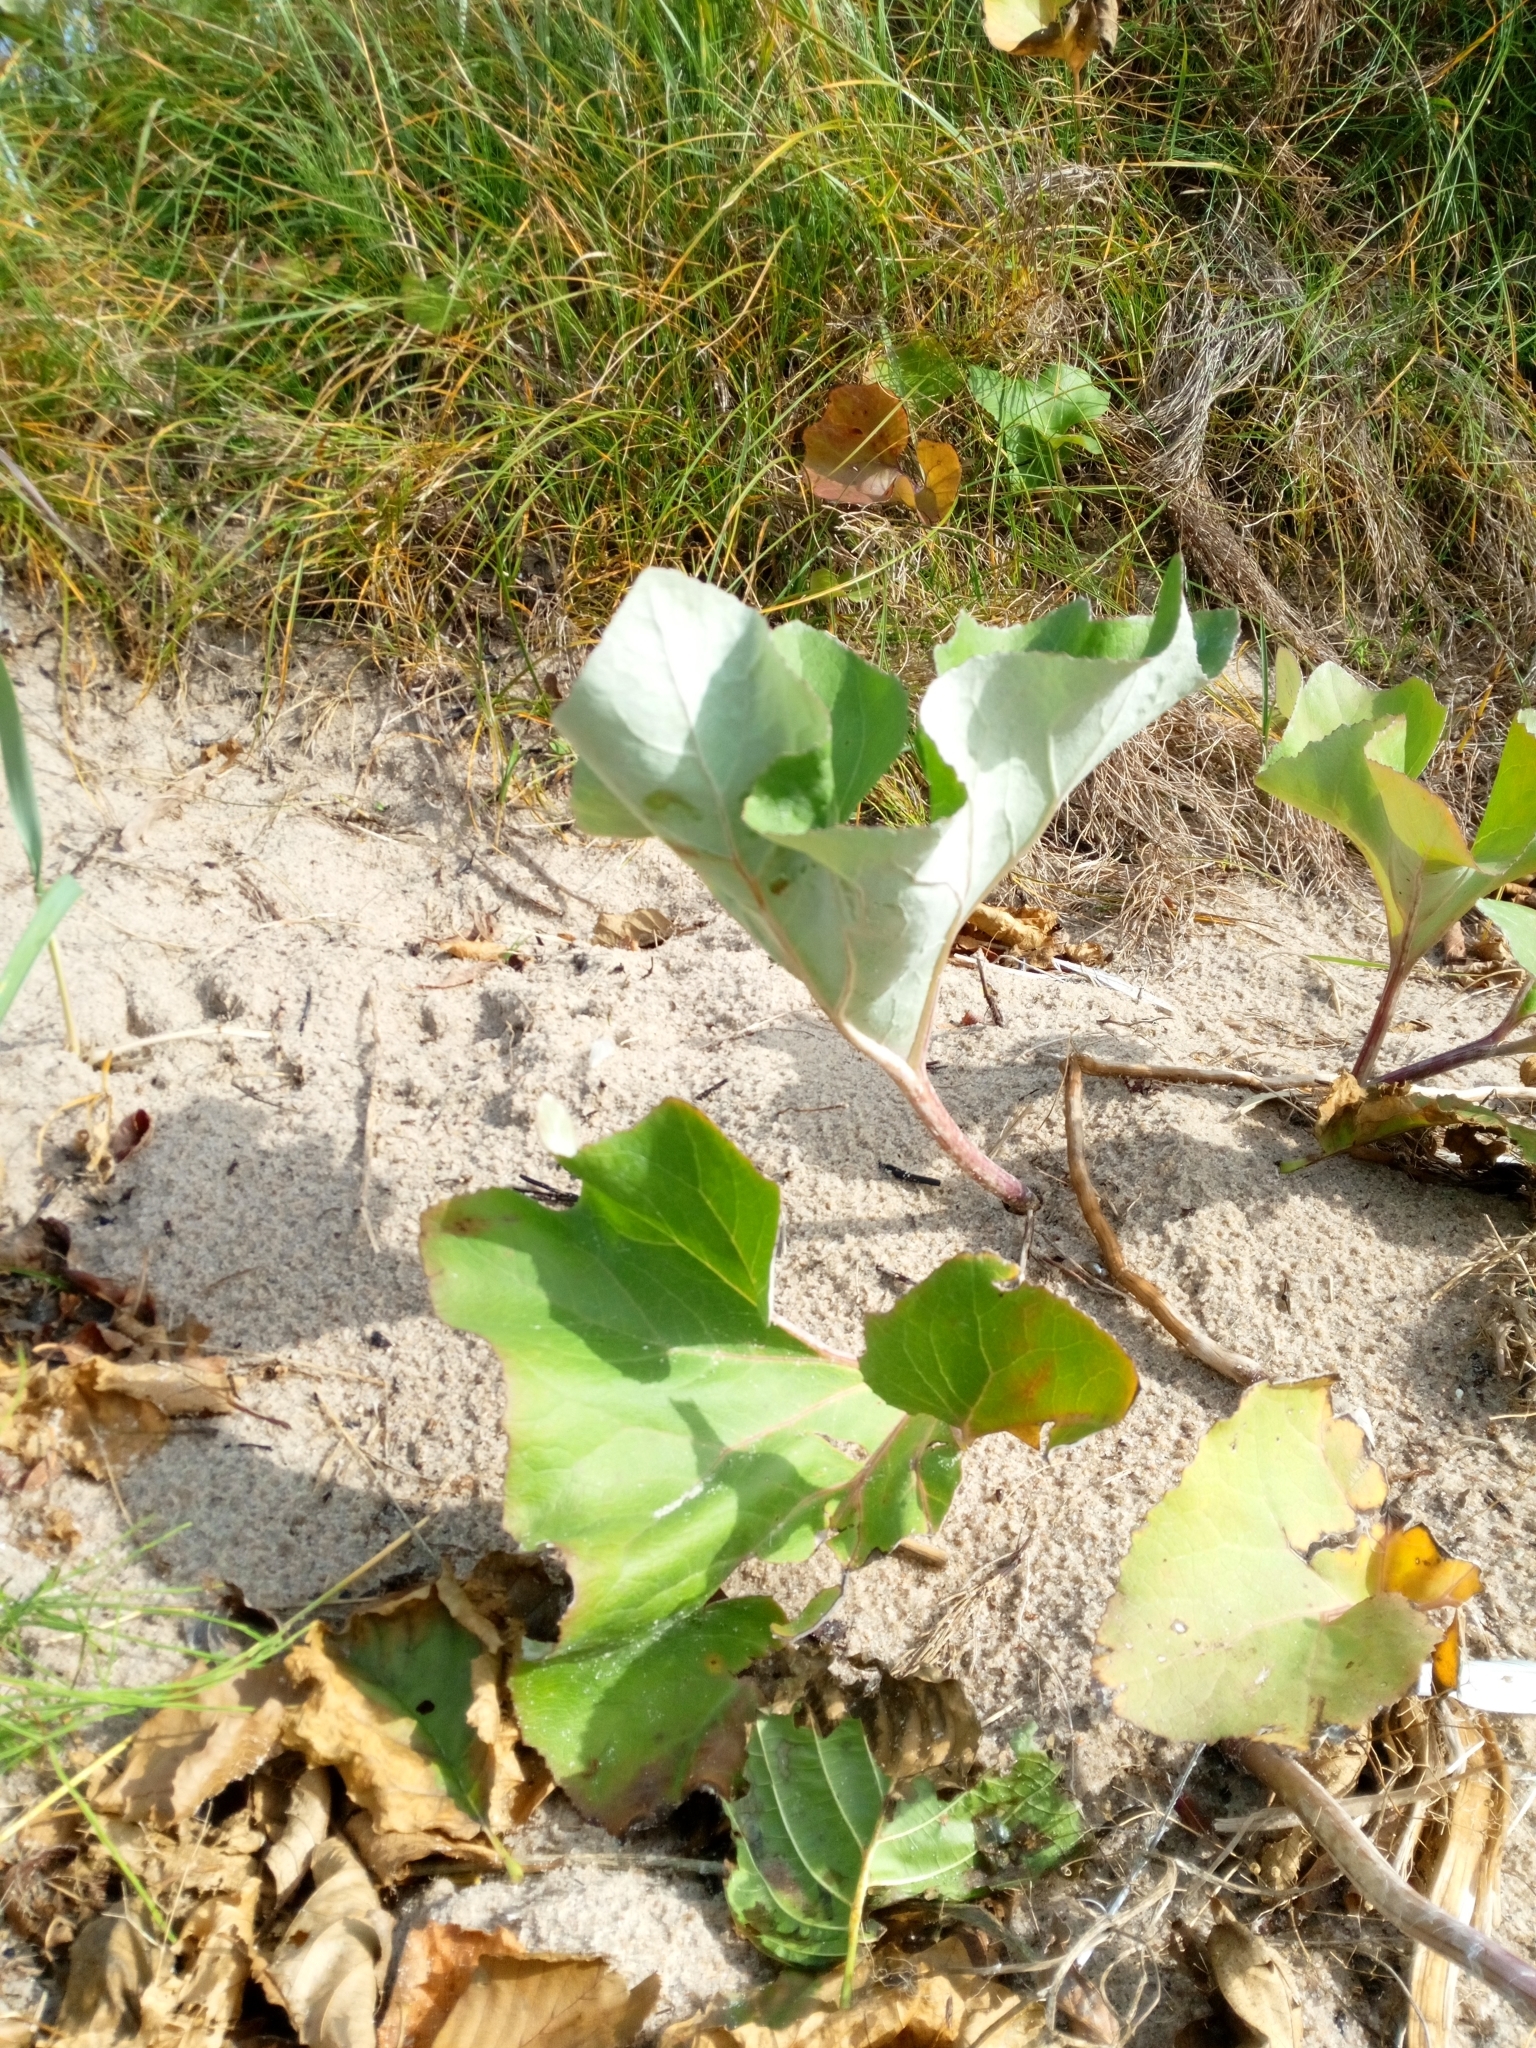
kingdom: Plantae
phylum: Tracheophyta
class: Magnoliopsida
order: Asterales
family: Asteraceae
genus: Petasites
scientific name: Petasites spurius
